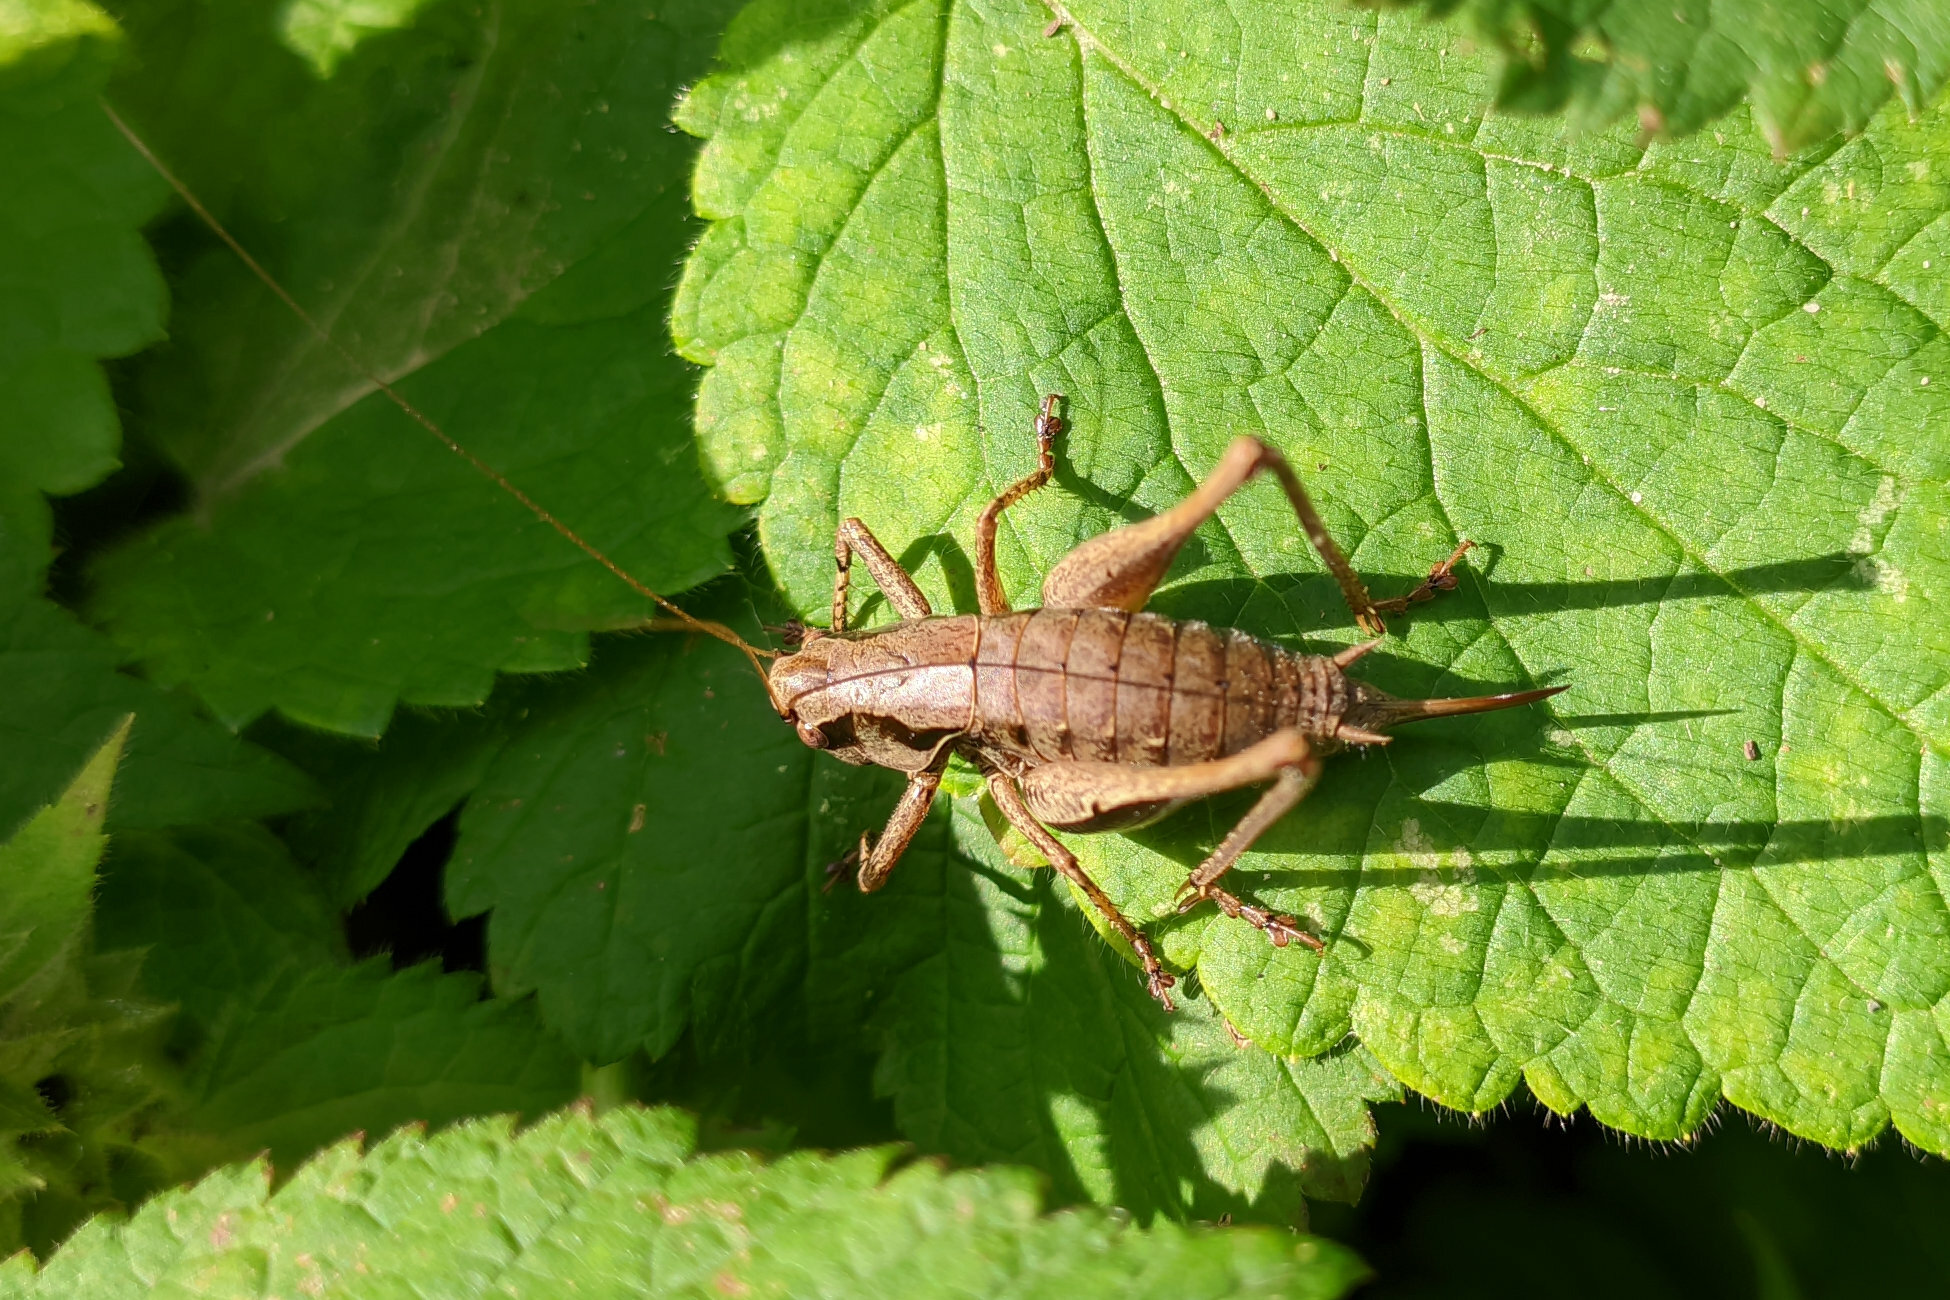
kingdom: Animalia
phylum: Arthropoda
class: Insecta
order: Orthoptera
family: Tettigoniidae
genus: Pholidoptera
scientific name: Pholidoptera griseoaptera
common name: Dark bush-cricket
